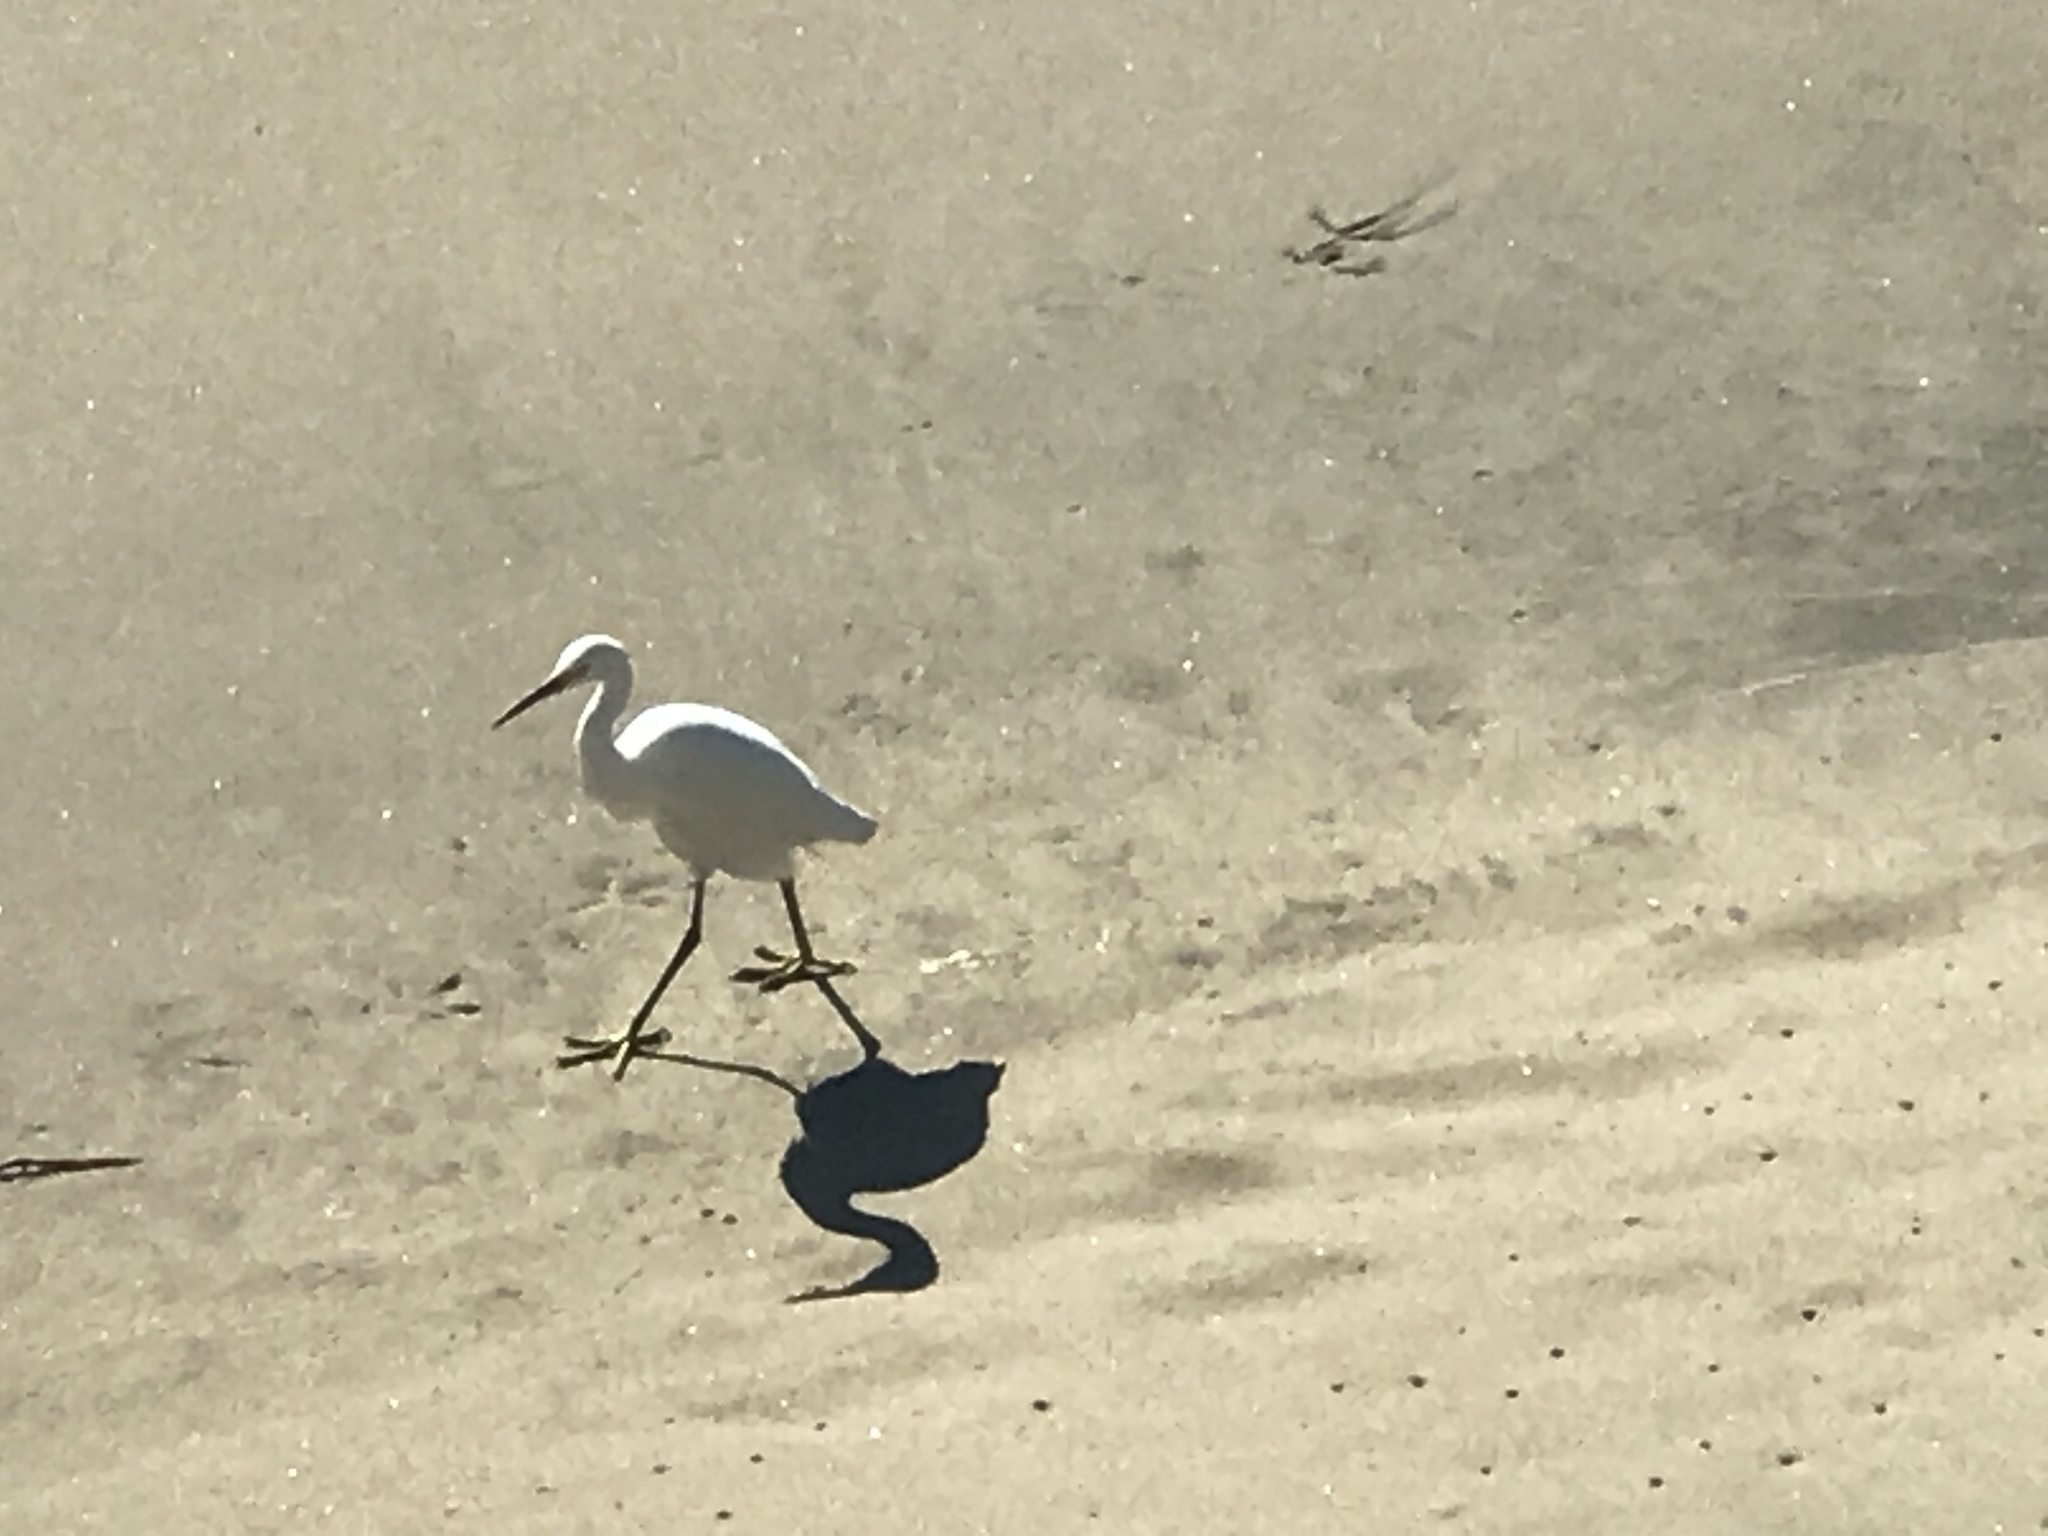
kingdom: Animalia
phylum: Chordata
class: Aves
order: Pelecaniformes
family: Ardeidae
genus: Egretta
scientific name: Egretta thula
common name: Snowy egret
